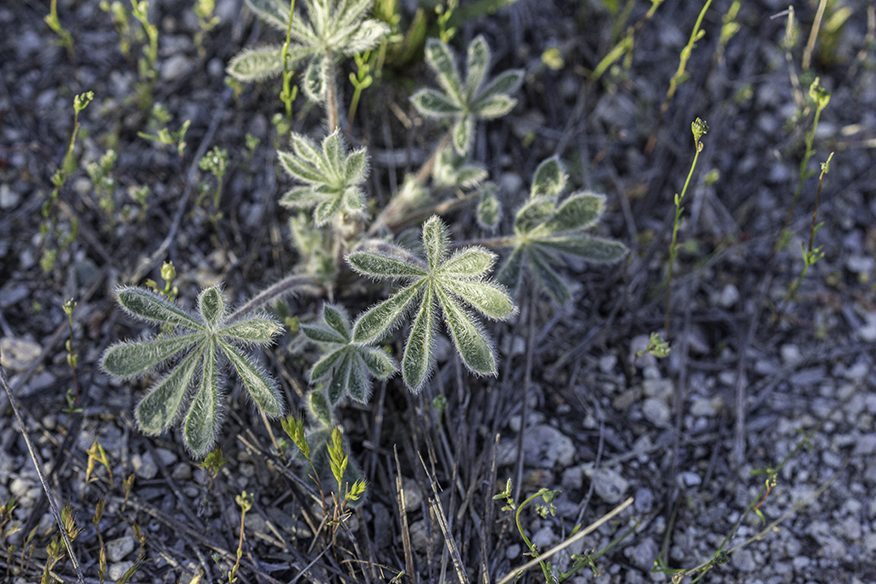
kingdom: Plantae
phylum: Tracheophyta
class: Magnoliopsida
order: Fabales
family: Fabaceae
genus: Lupinus
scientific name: Lupinus concinnus
